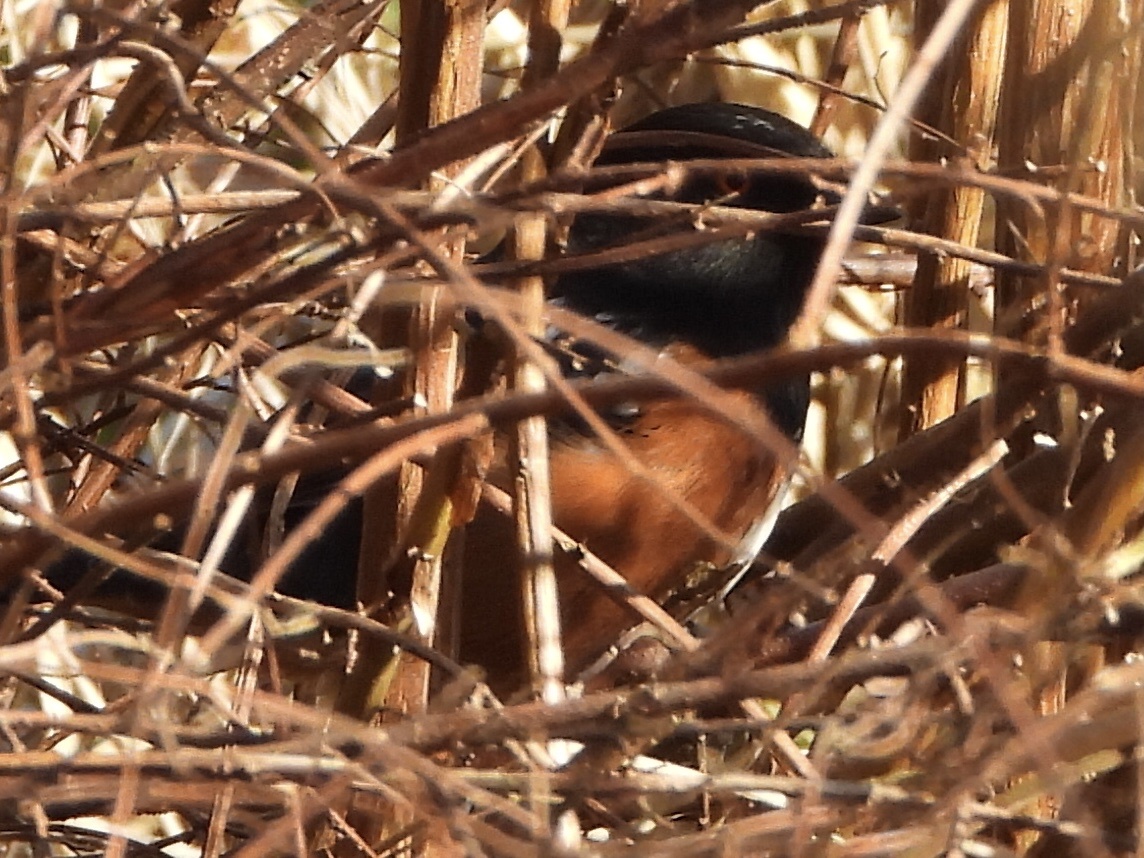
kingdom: Animalia
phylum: Chordata
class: Aves
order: Passeriformes
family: Passerellidae
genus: Pipilo
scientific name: Pipilo maculatus
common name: Spotted towhee
